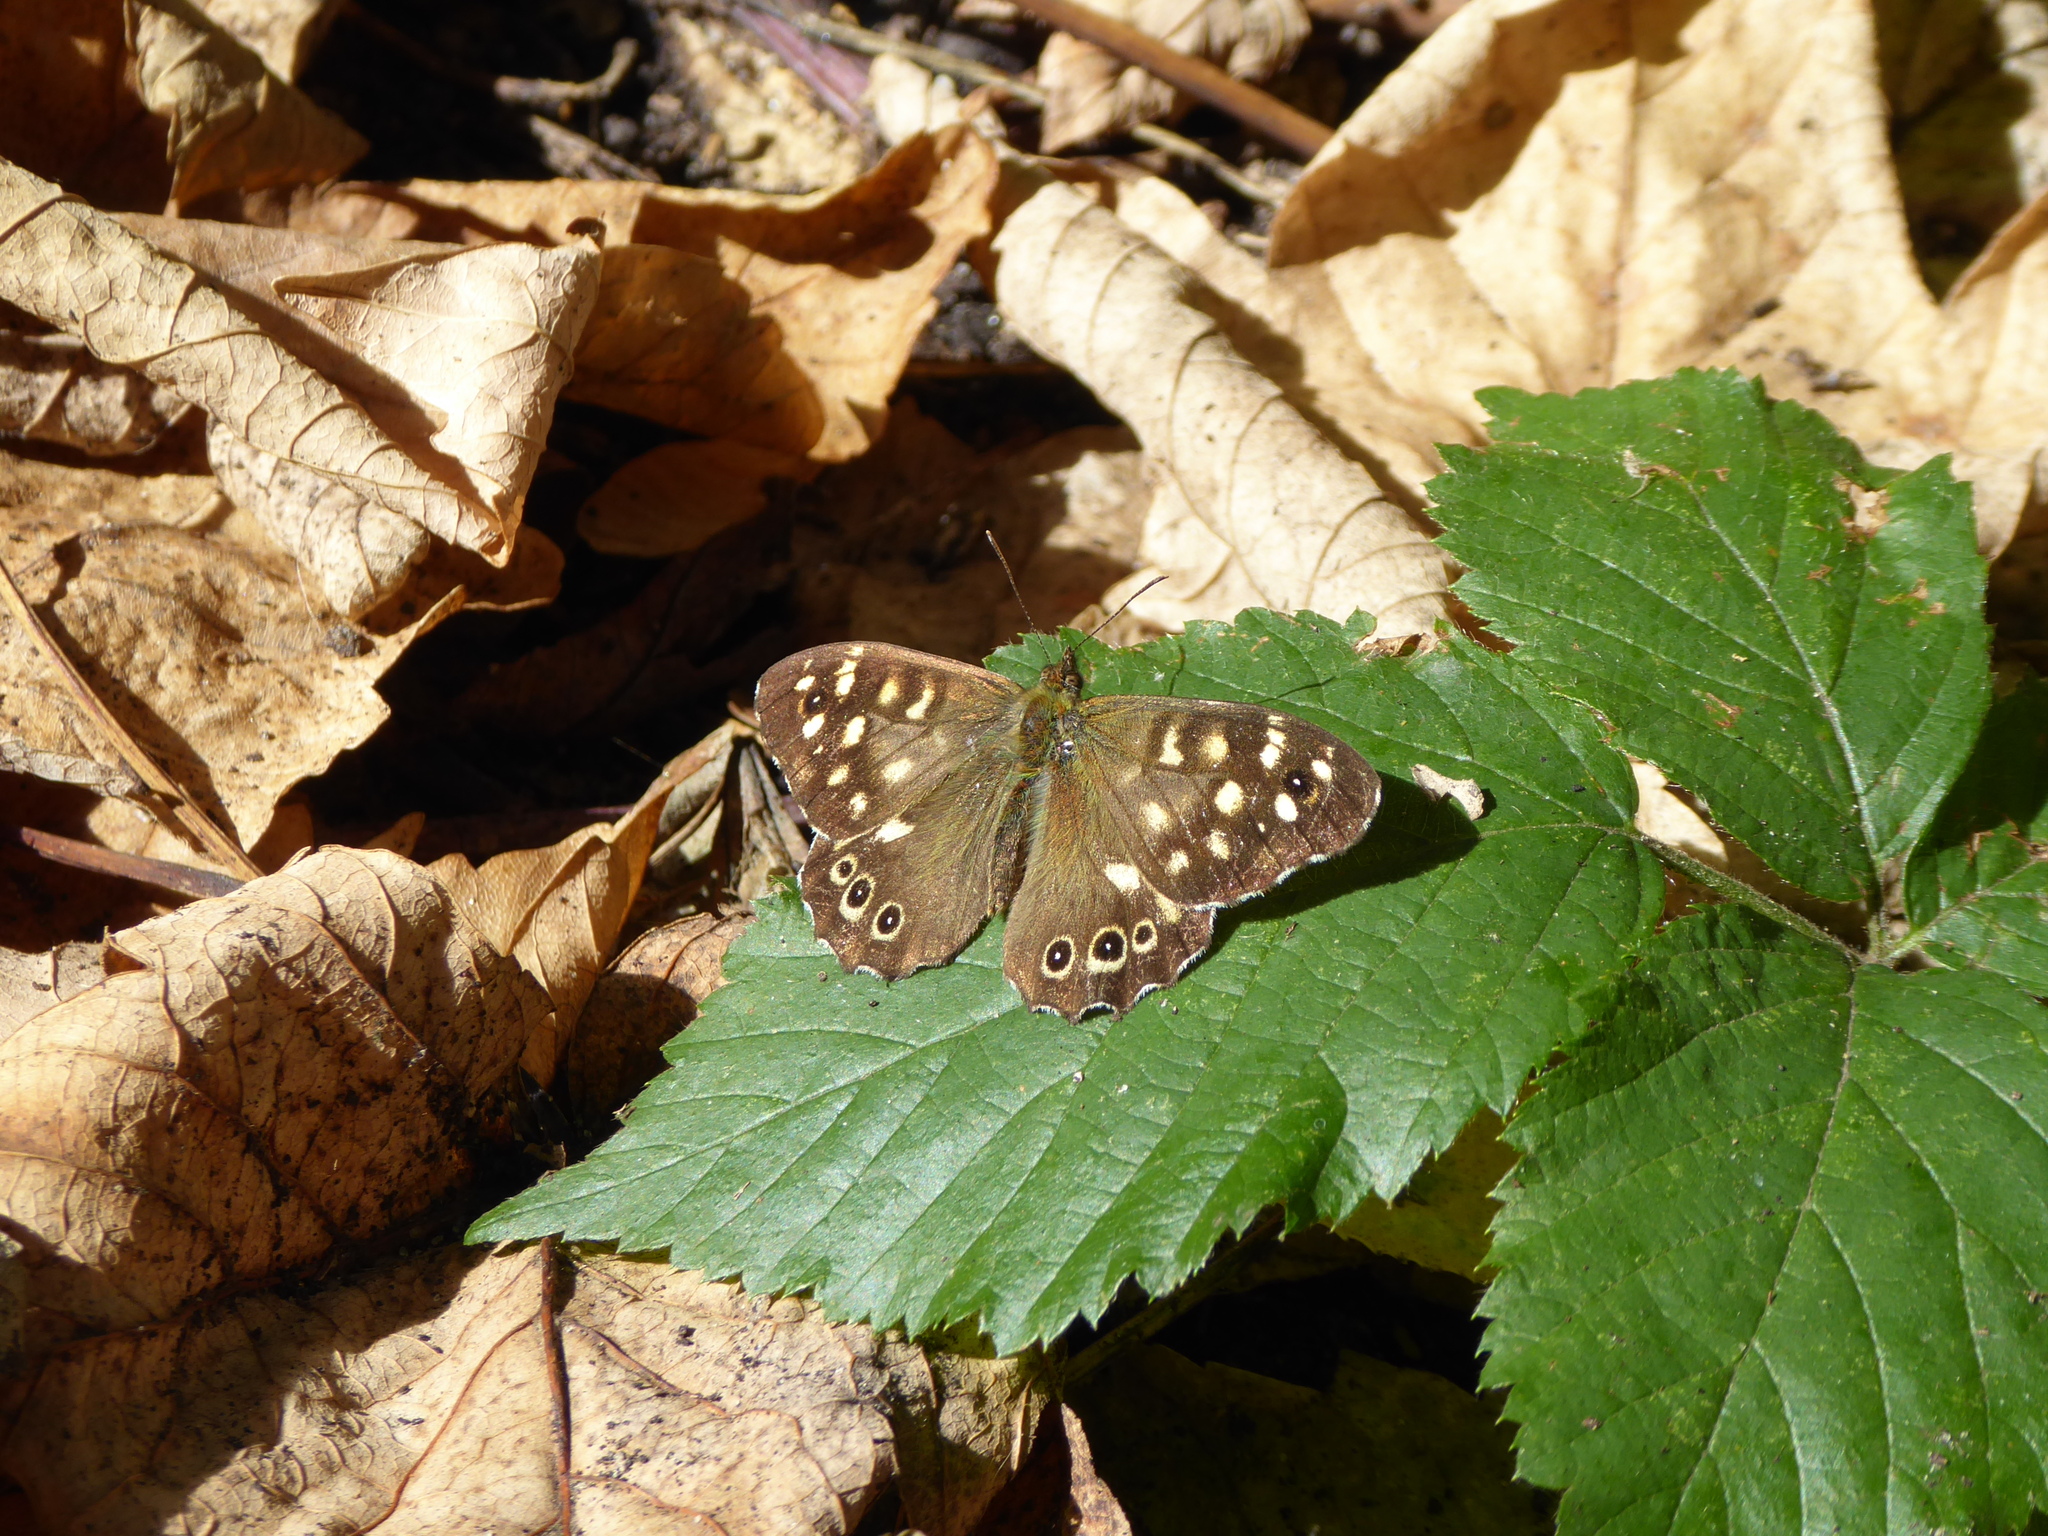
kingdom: Animalia
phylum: Arthropoda
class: Insecta
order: Lepidoptera
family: Nymphalidae
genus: Pararge
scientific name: Pararge aegeria
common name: Speckled wood
